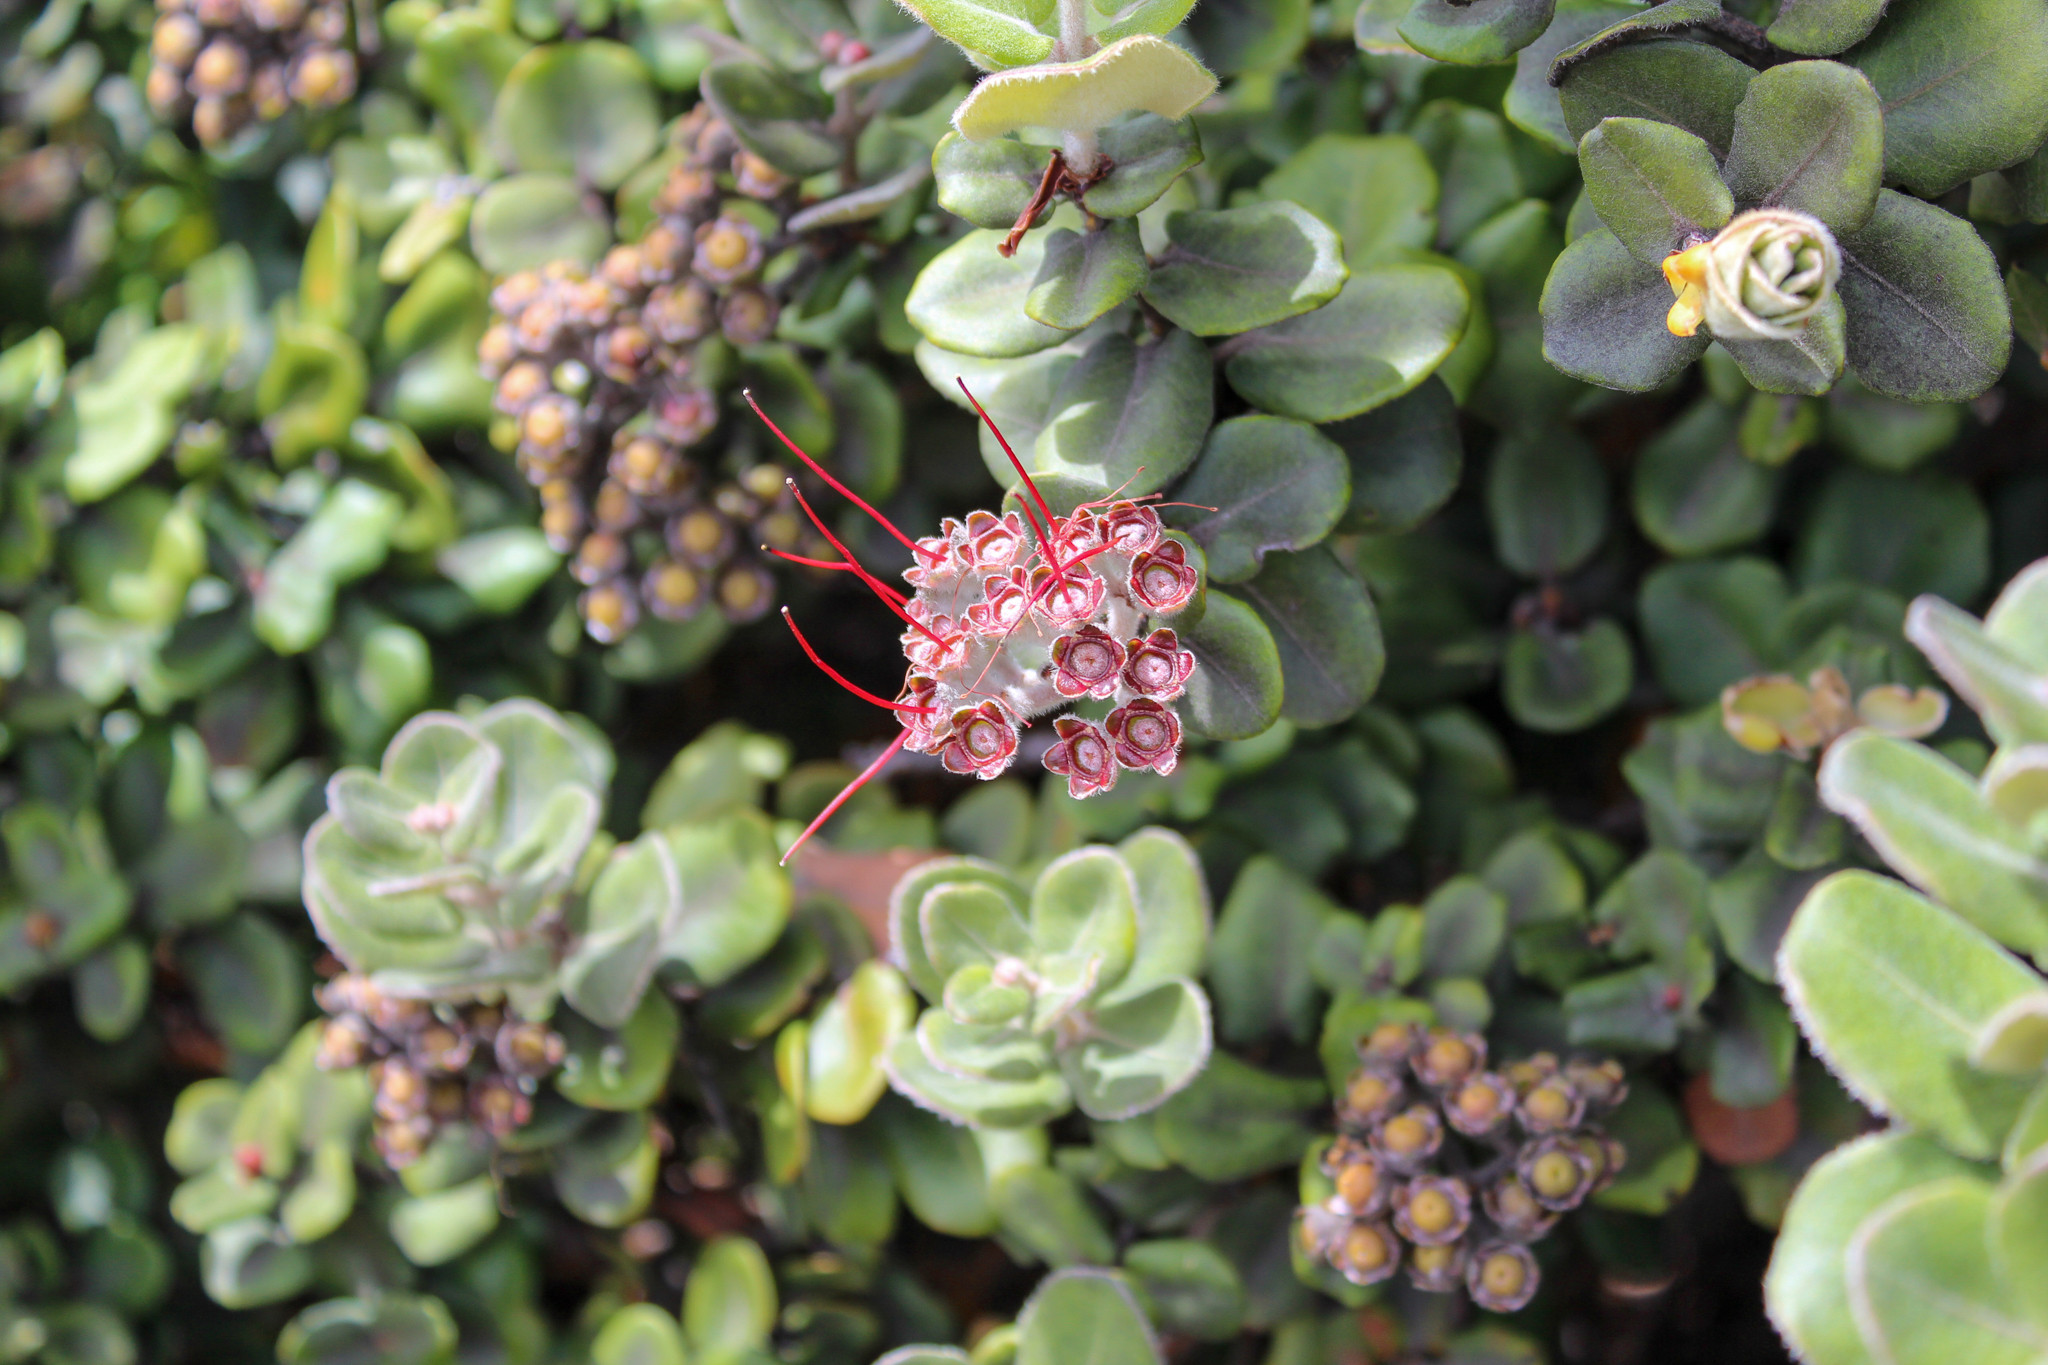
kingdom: Plantae
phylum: Tracheophyta
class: Magnoliopsida
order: Myrtales
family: Myrtaceae
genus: Metrosideros
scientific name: Metrosideros polymorpha
